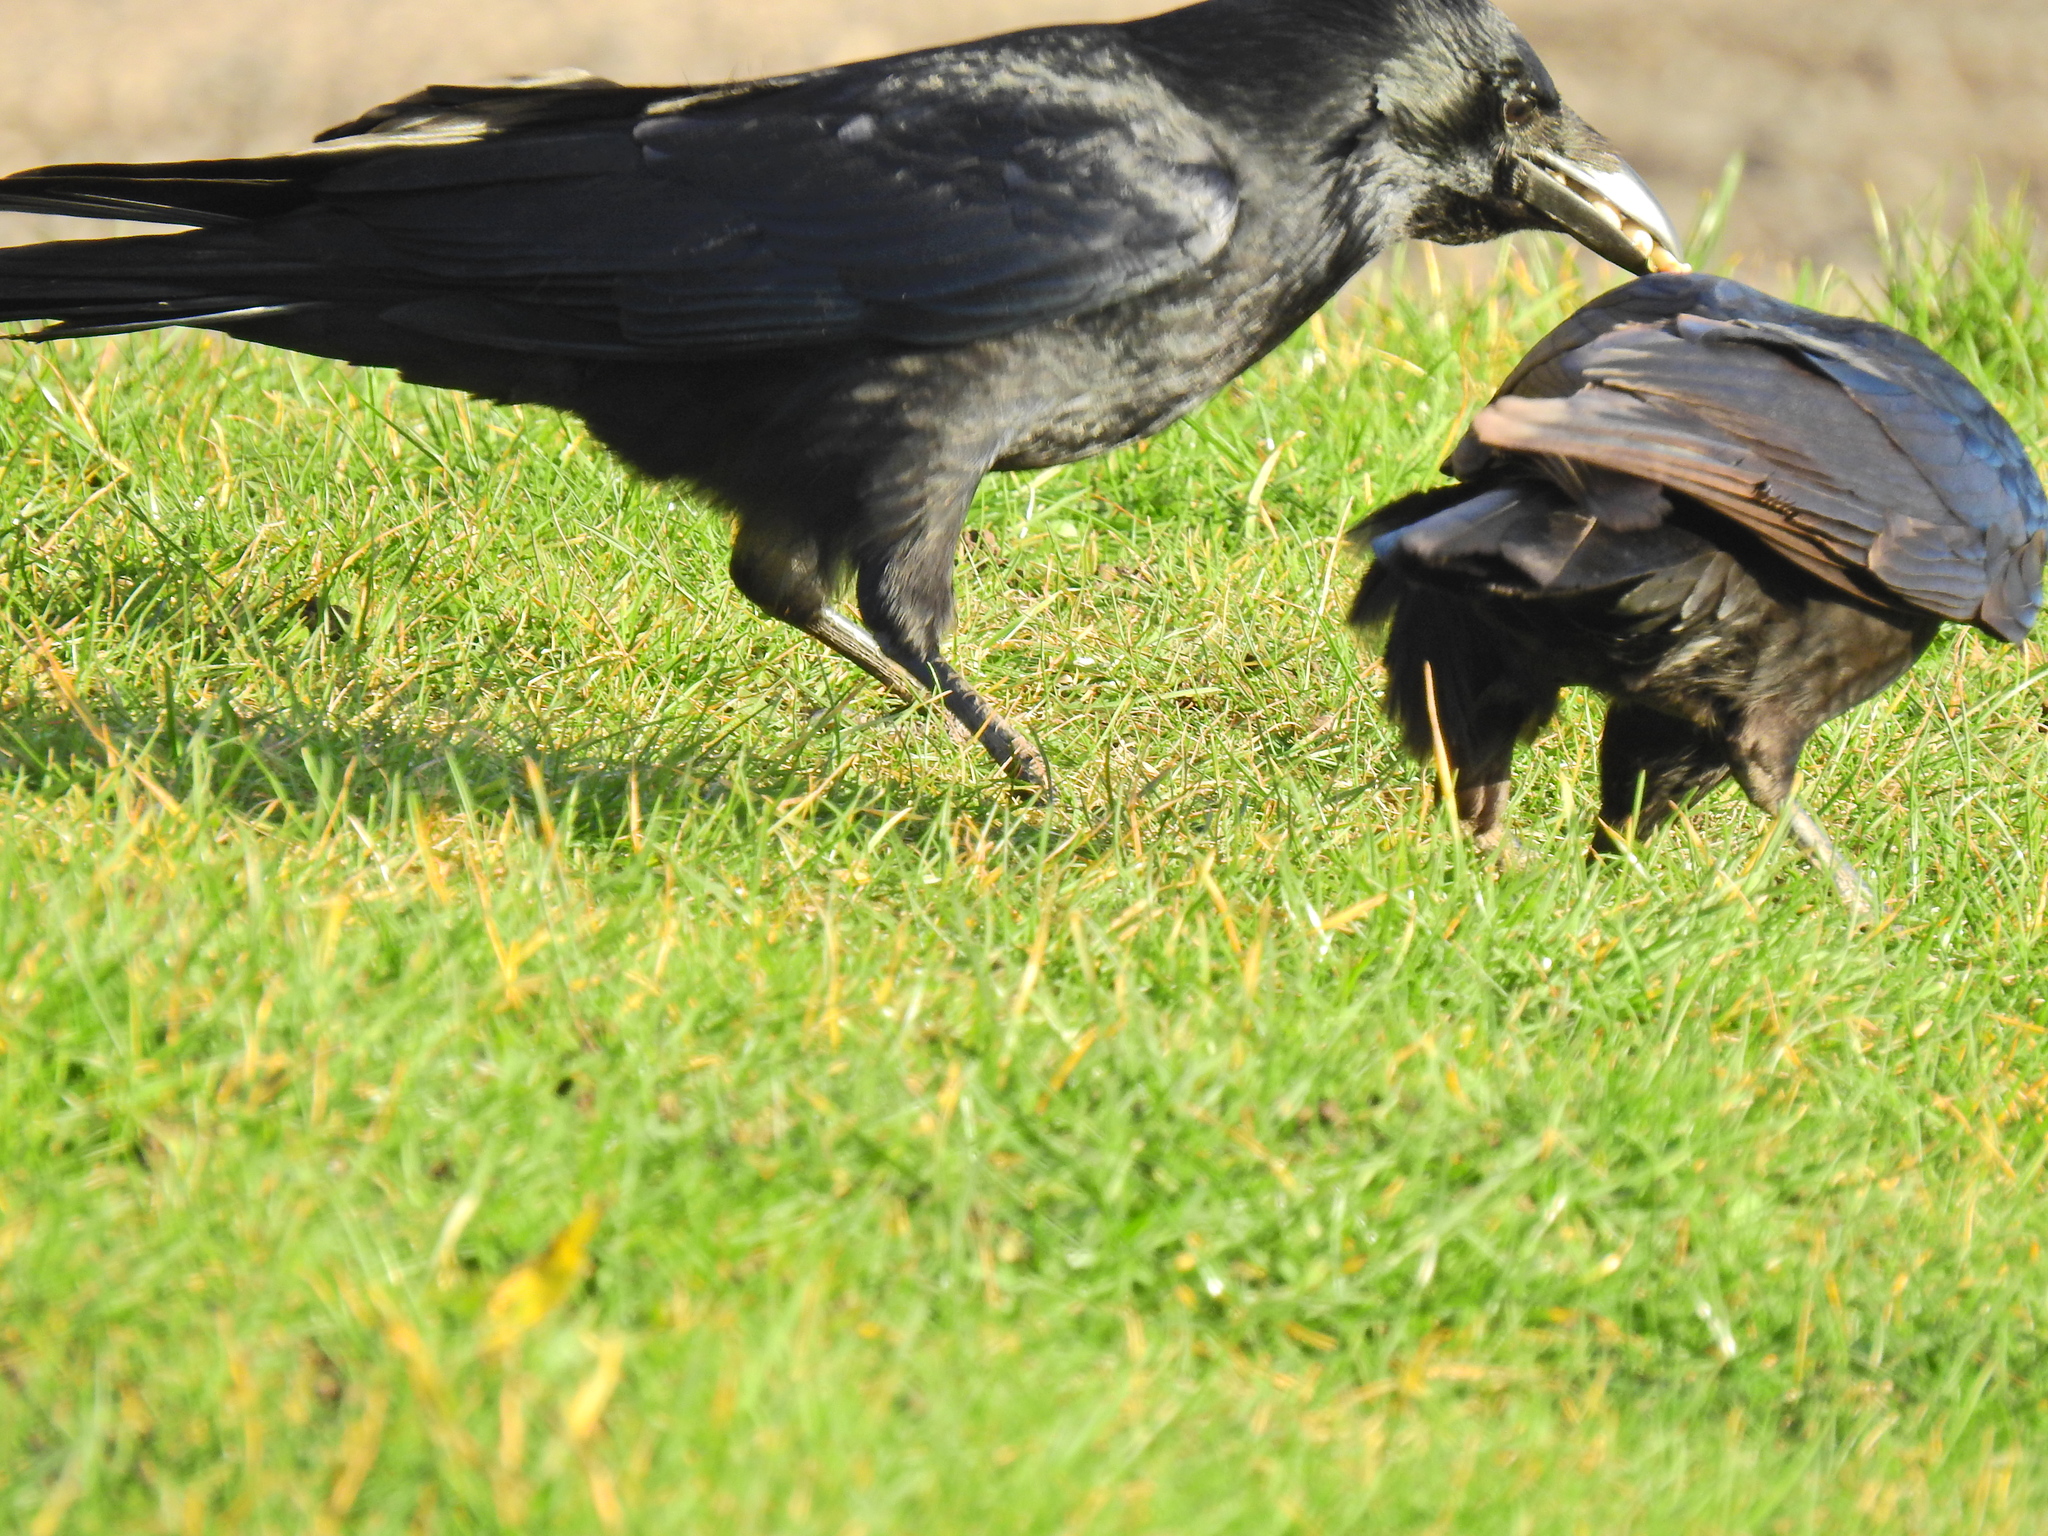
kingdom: Animalia
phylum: Chordata
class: Aves
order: Passeriformes
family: Corvidae
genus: Corvus
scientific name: Corvus corax
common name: Common raven
